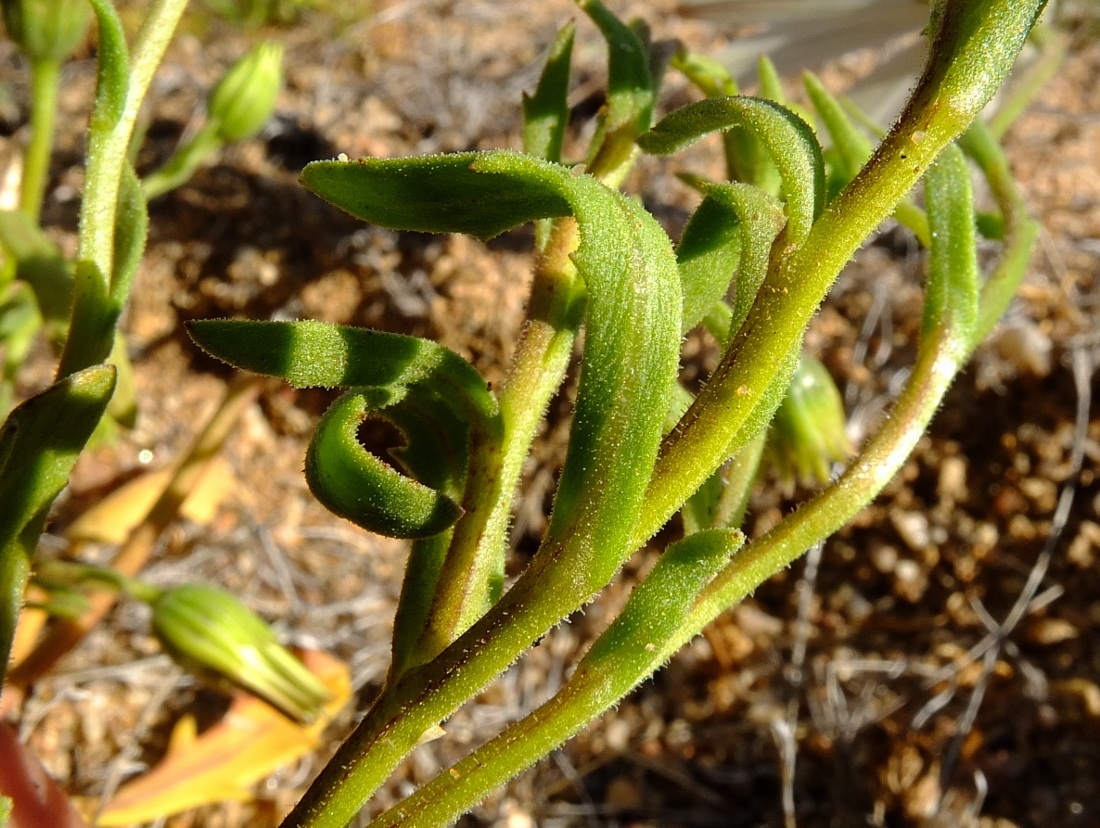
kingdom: Plantae
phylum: Tracheophyta
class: Magnoliopsida
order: Asterales
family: Asteraceae
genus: Dimorphotheca
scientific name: Dimorphotheca pluvialis
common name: Weather prophet
